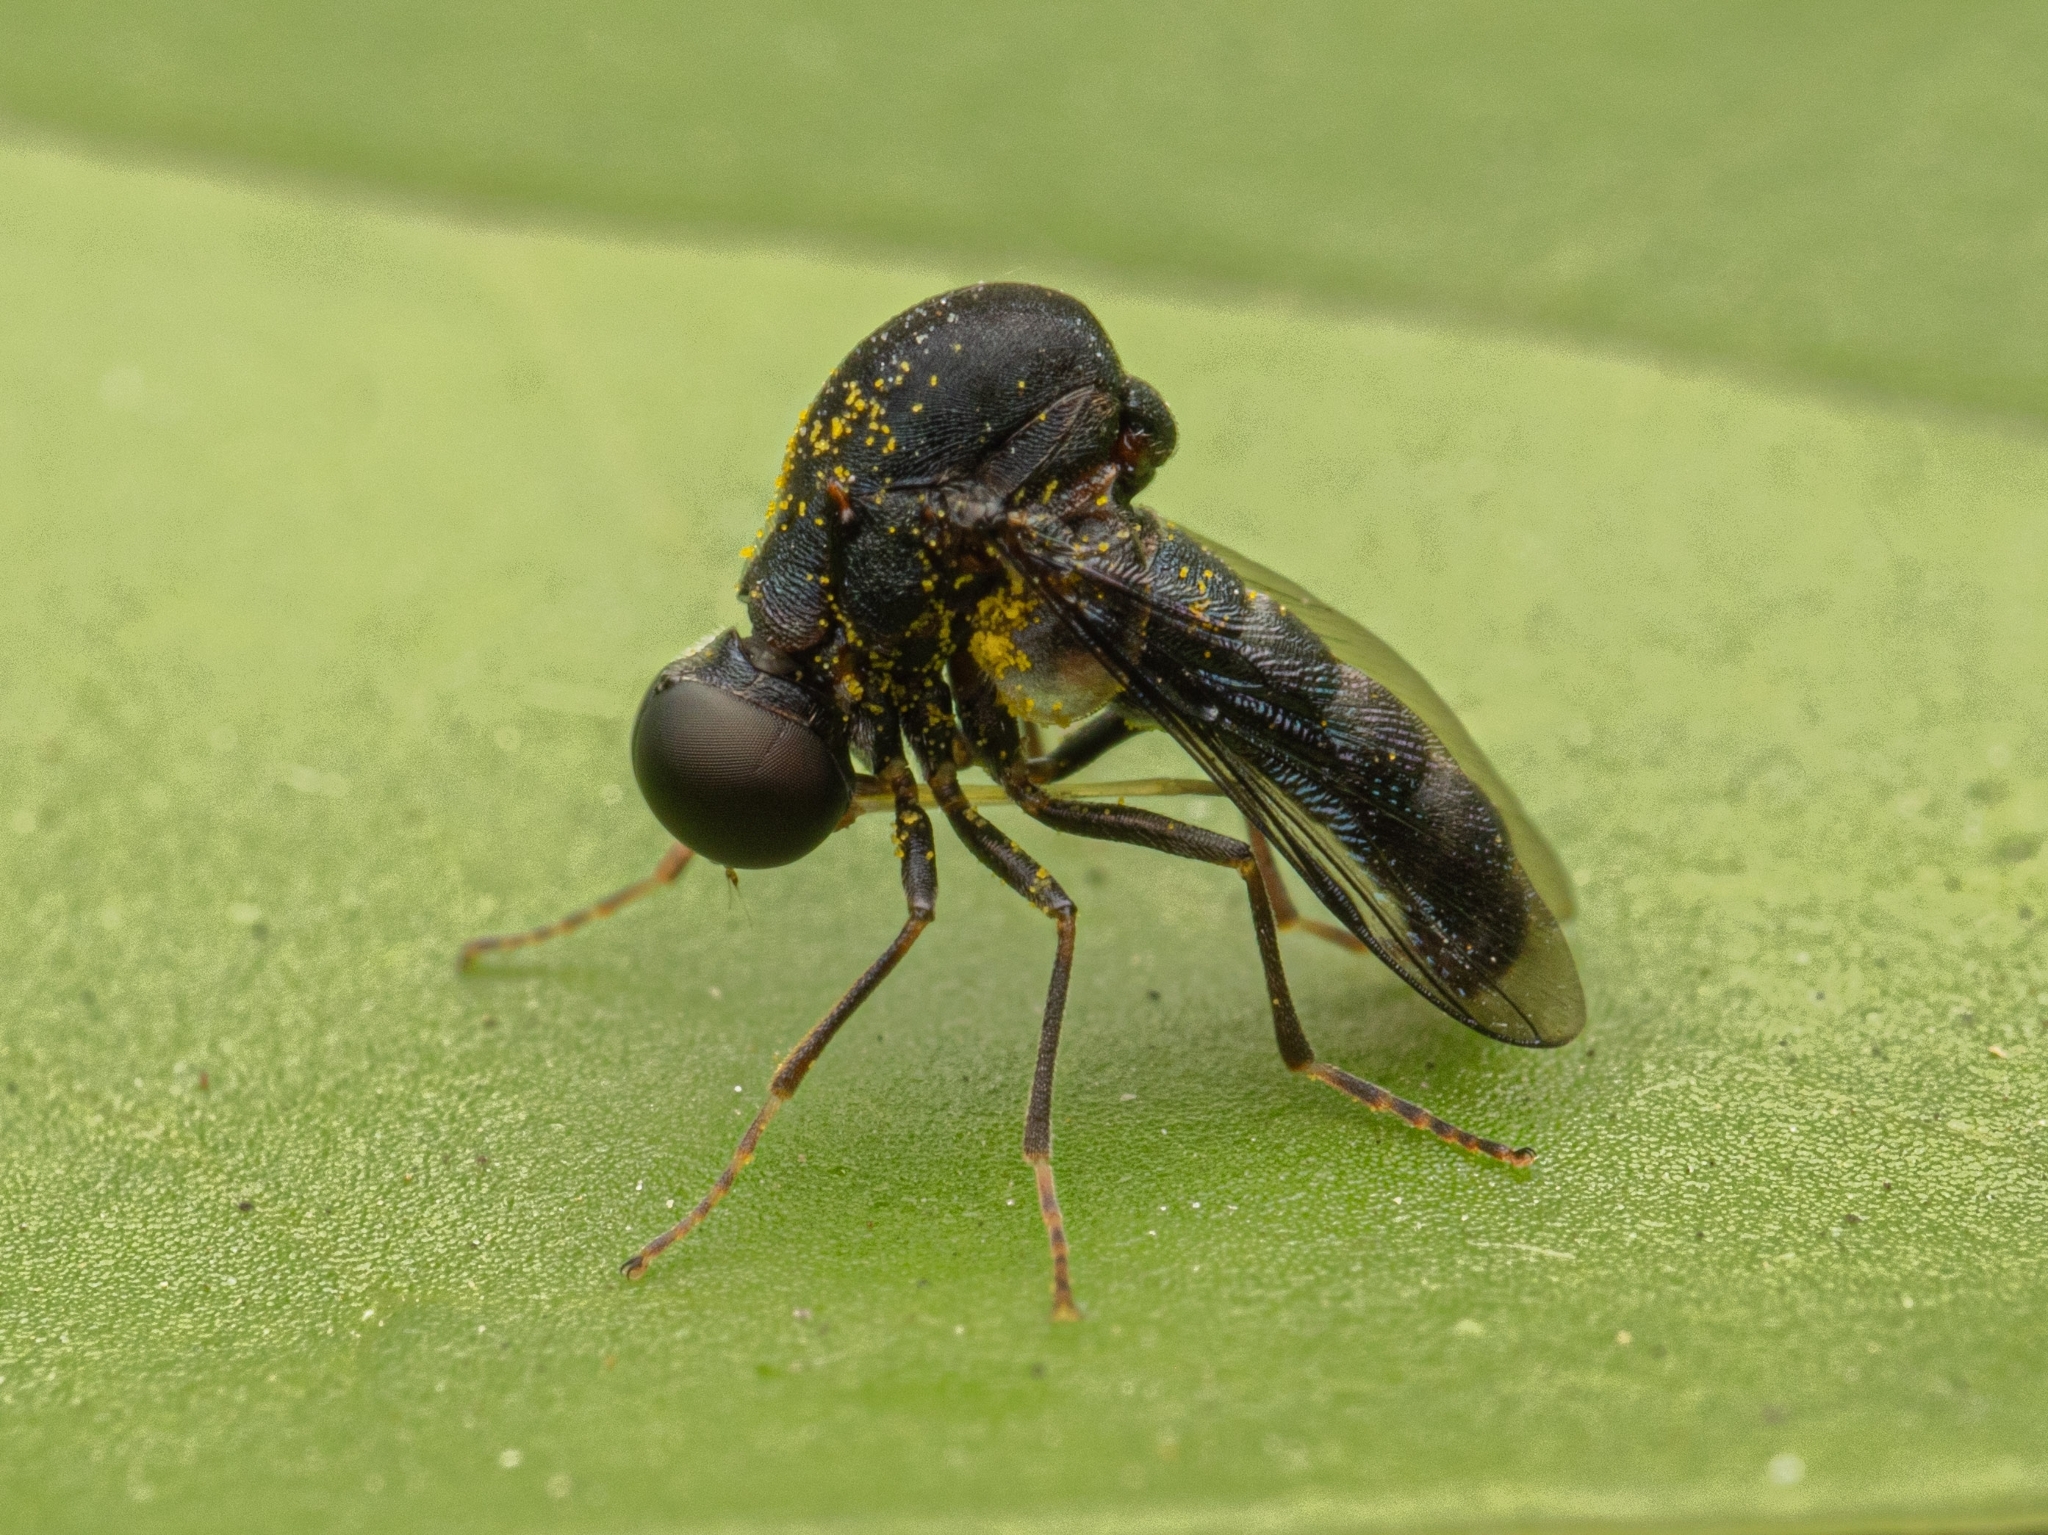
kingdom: Animalia
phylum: Arthropoda
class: Insecta
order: Diptera
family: Acroceridae
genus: Helle
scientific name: Helle longirostris
